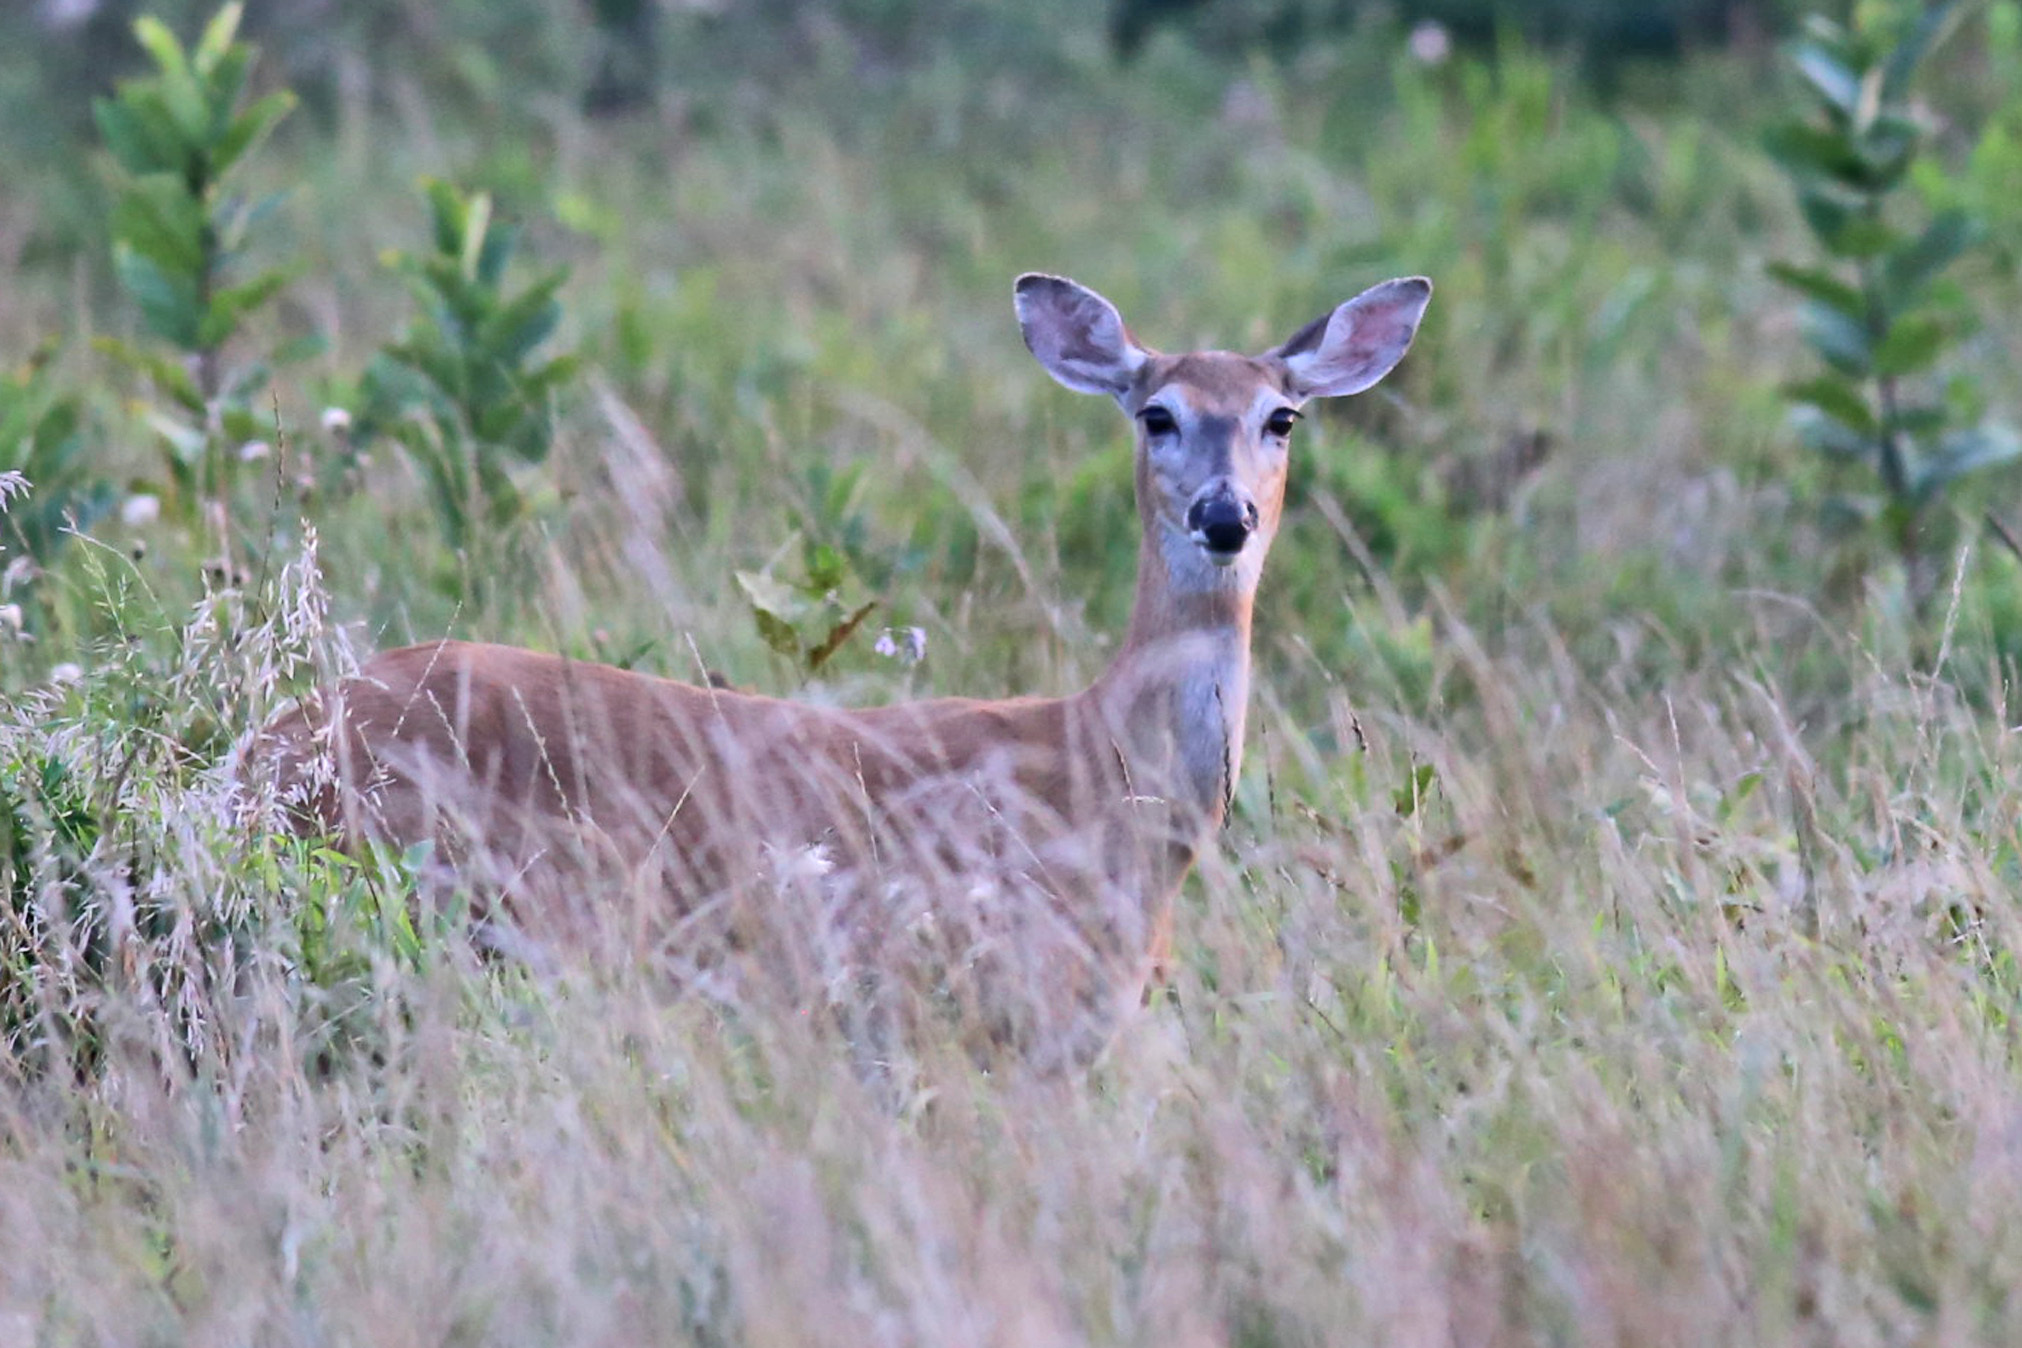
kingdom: Animalia
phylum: Chordata
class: Mammalia
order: Artiodactyla
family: Cervidae
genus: Odocoileus
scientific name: Odocoileus virginianus
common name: White-tailed deer
